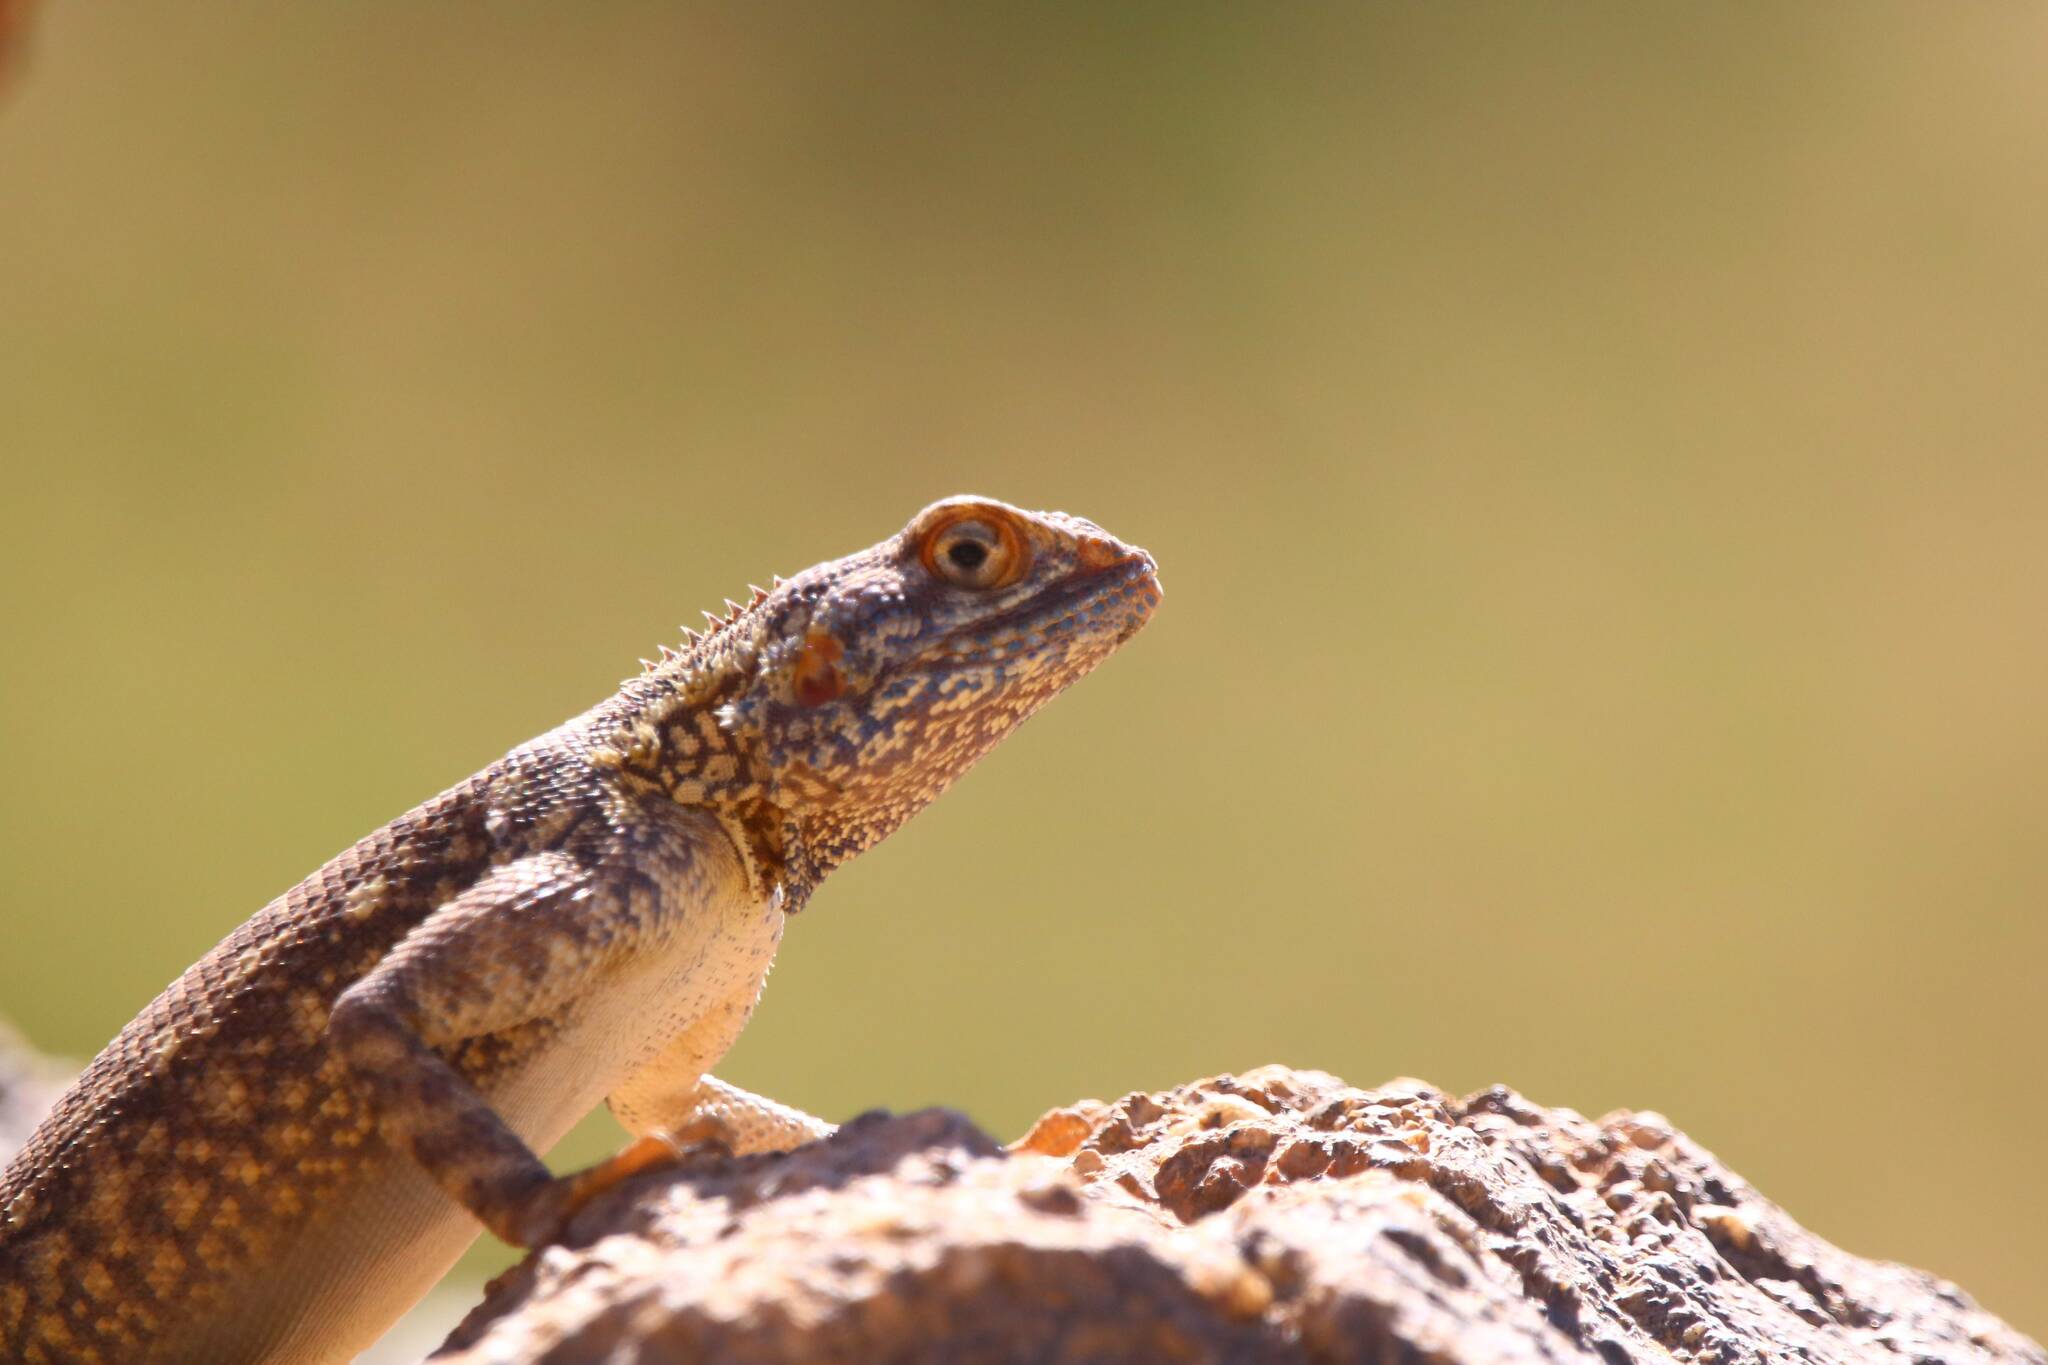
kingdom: Animalia
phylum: Chordata
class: Squamata
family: Agamidae
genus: Agama
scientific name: Agama tassiliensis
